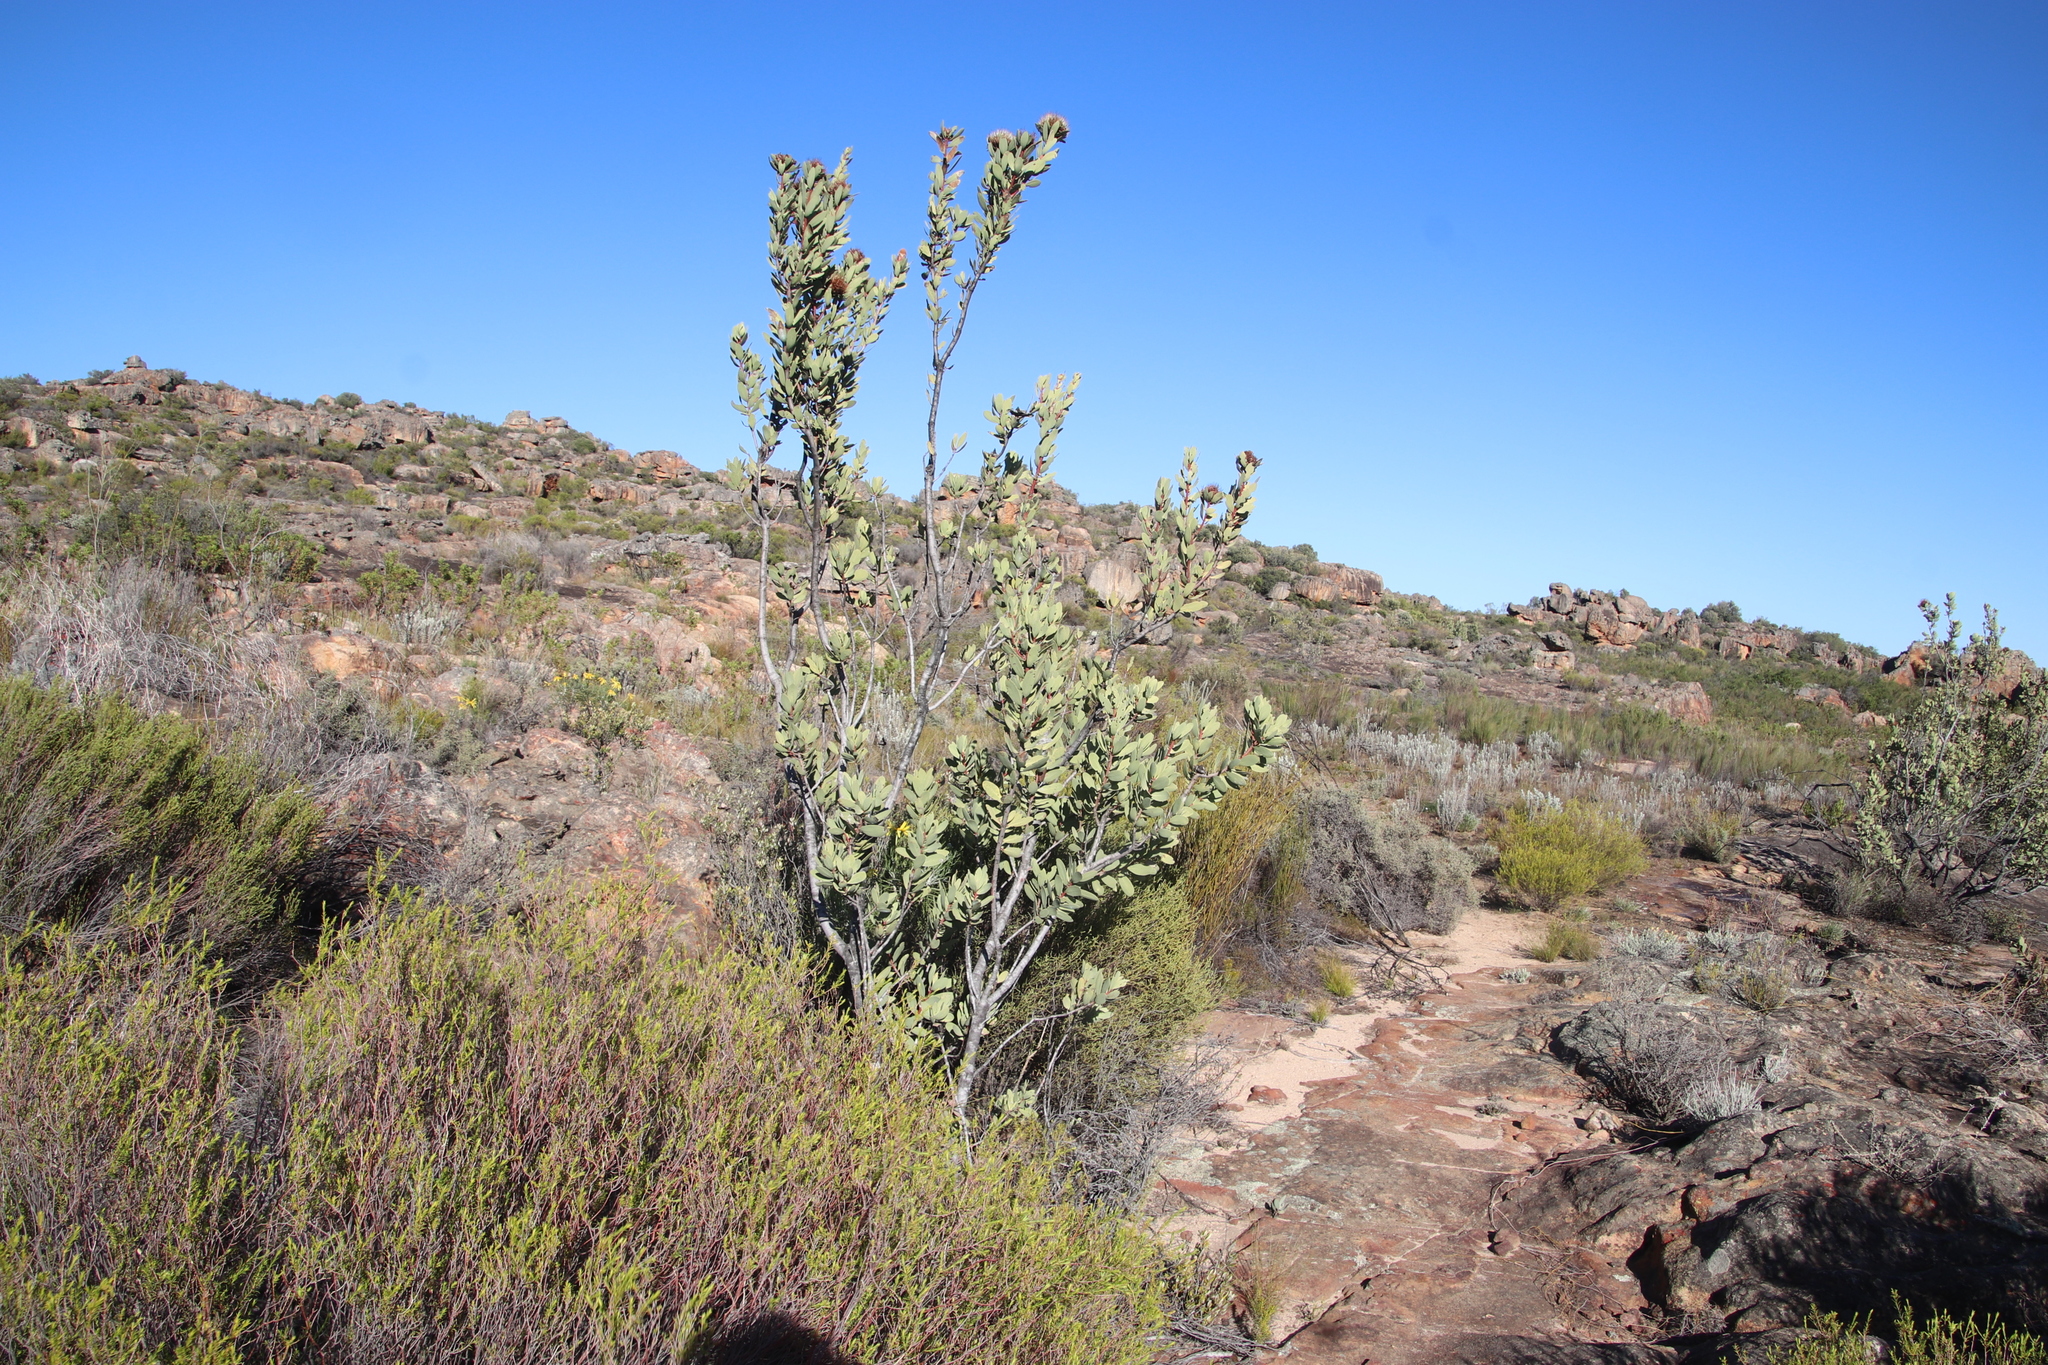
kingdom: Plantae
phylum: Tracheophyta
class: Magnoliopsida
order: Proteales
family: Proteaceae
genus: Protea
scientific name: Protea glabra
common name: Chestnut sugarbush
